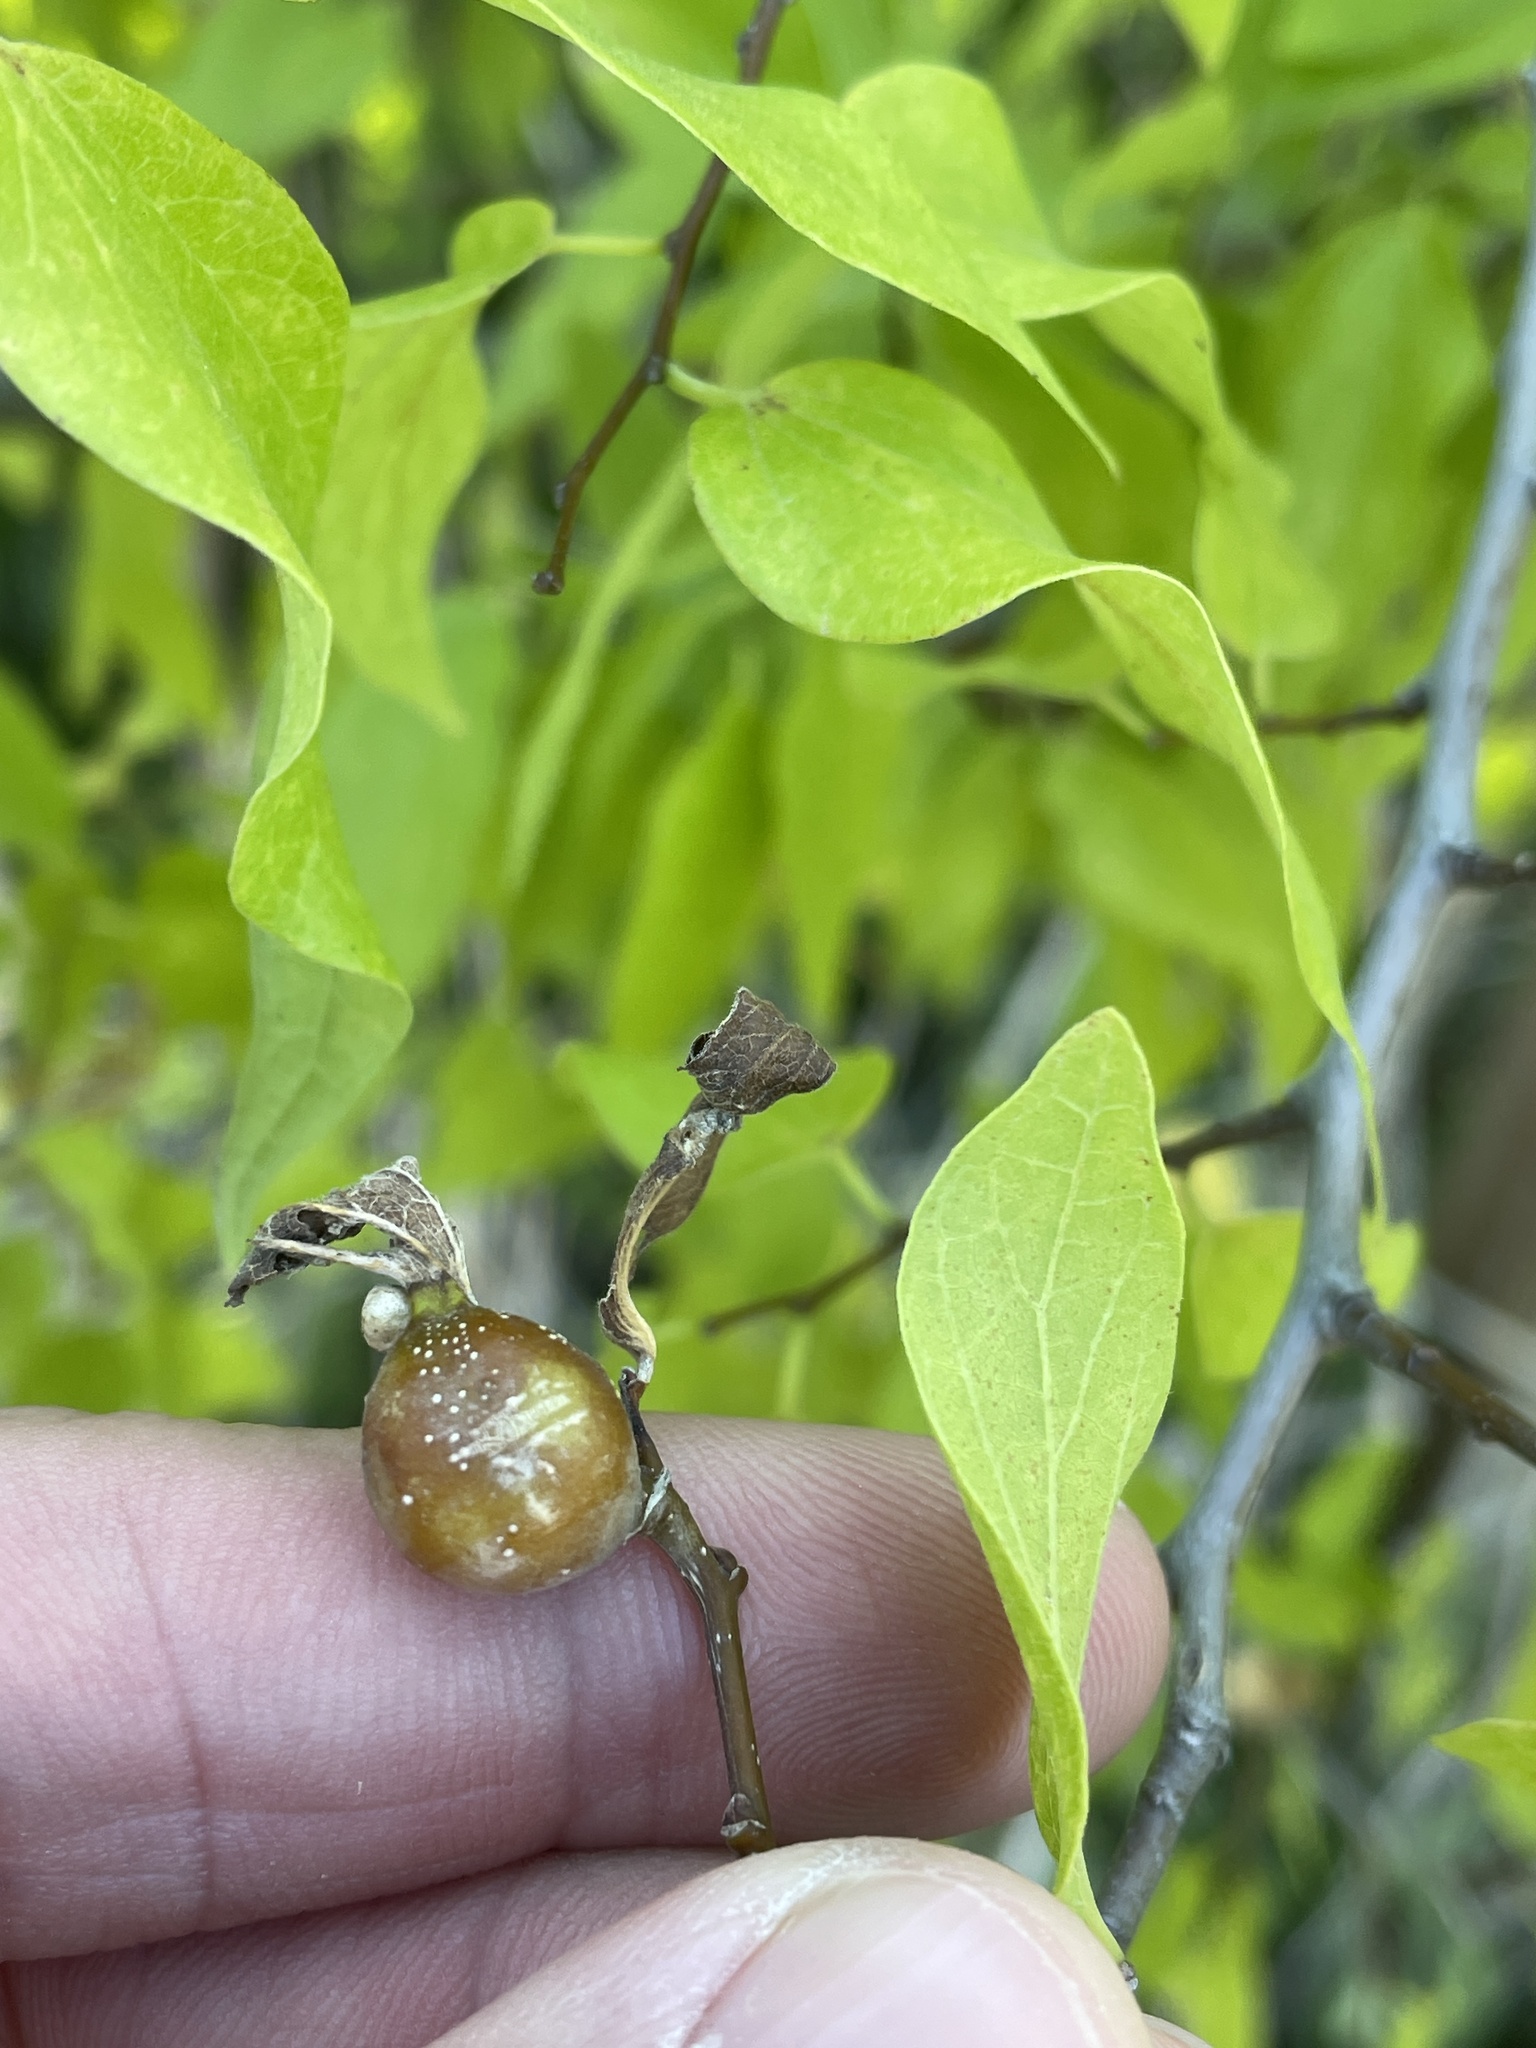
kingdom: Animalia
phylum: Arthropoda
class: Insecta
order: Hemiptera
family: Aphalaridae
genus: Pachypsylla
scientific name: Pachypsylla venusta
